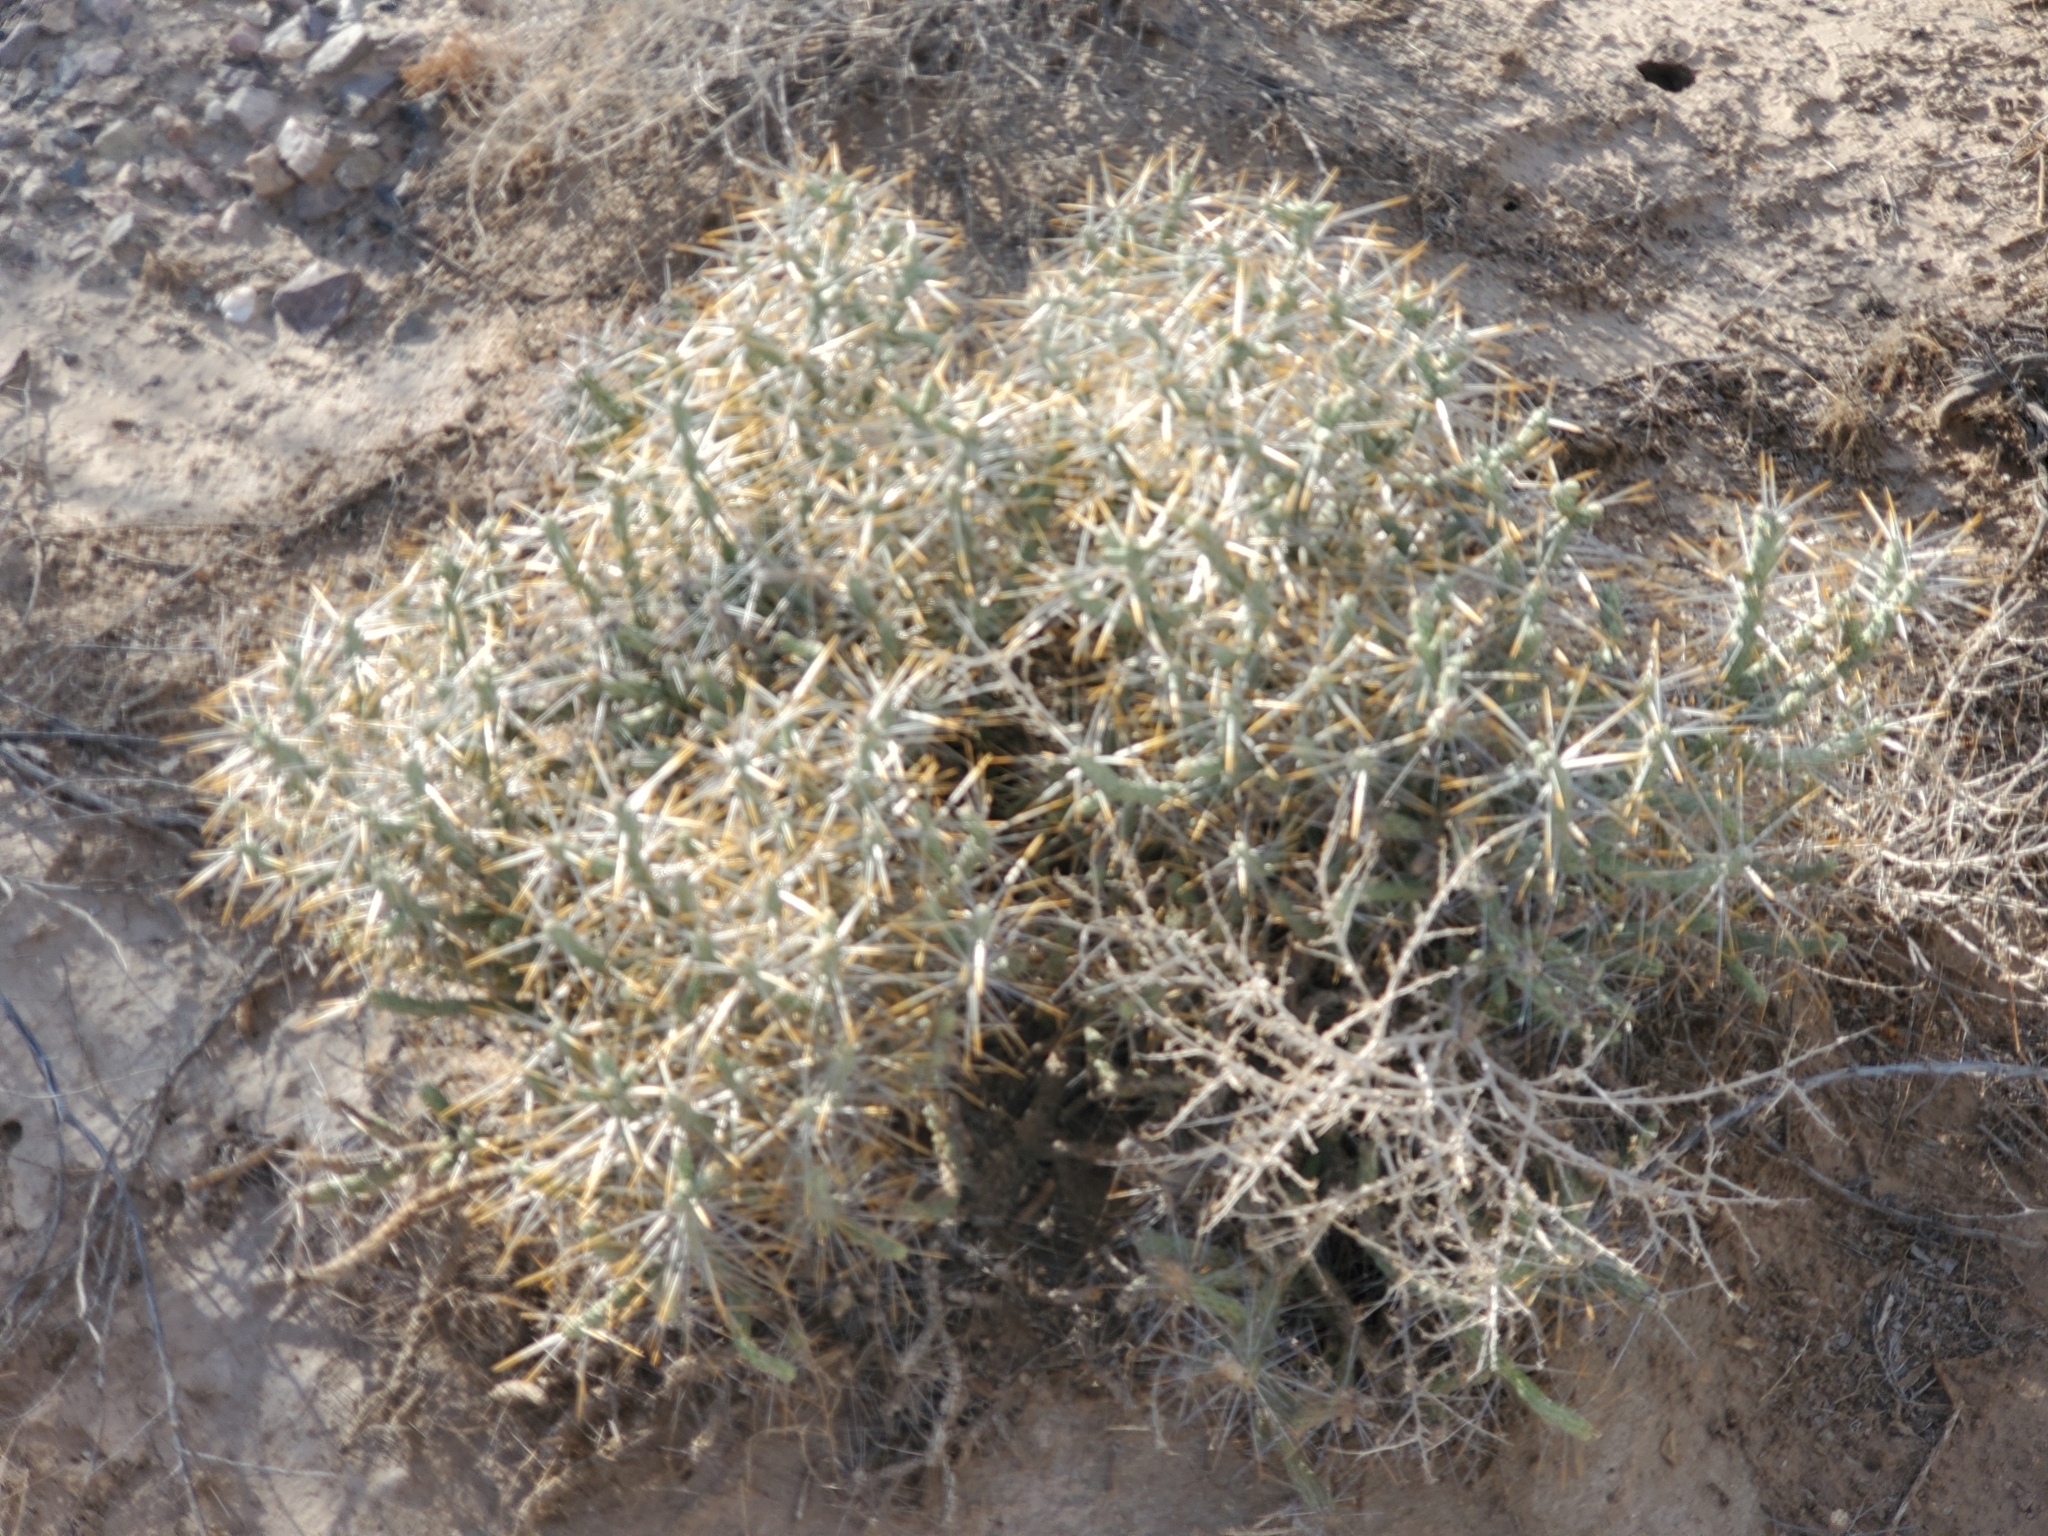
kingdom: Plantae
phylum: Tracheophyta
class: Magnoliopsida
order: Caryophyllales
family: Cactaceae
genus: Cylindropuntia
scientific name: Cylindropuntia ramosissima
